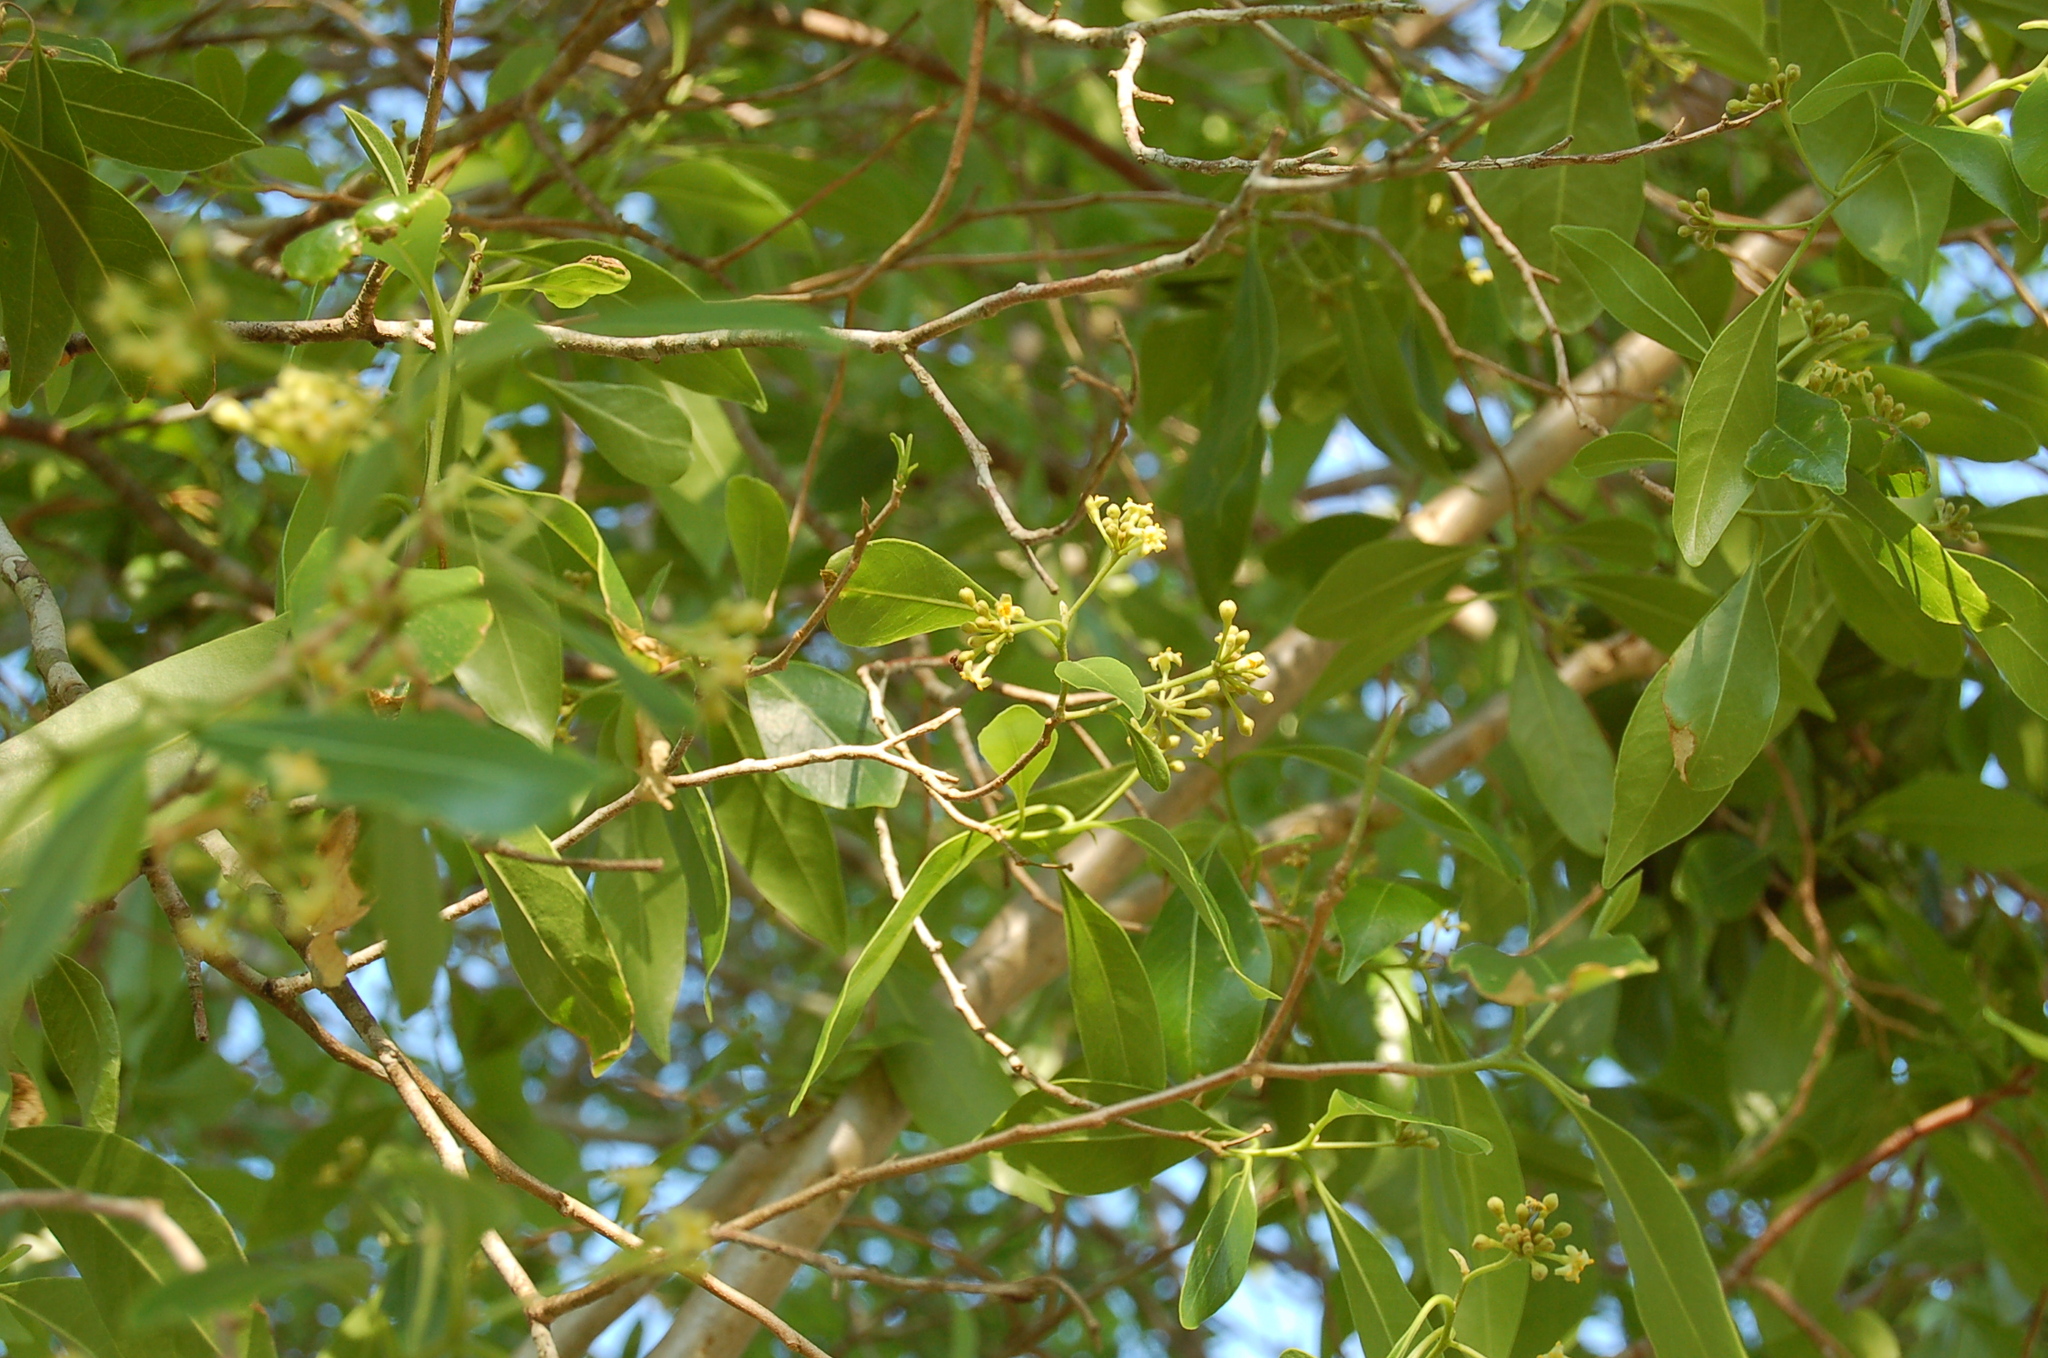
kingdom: Plantae
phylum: Tracheophyta
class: Magnoliopsida
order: Malvales
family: Thymelaeaceae
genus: Daphnopsis
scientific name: Daphnopsis americana
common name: Maho
